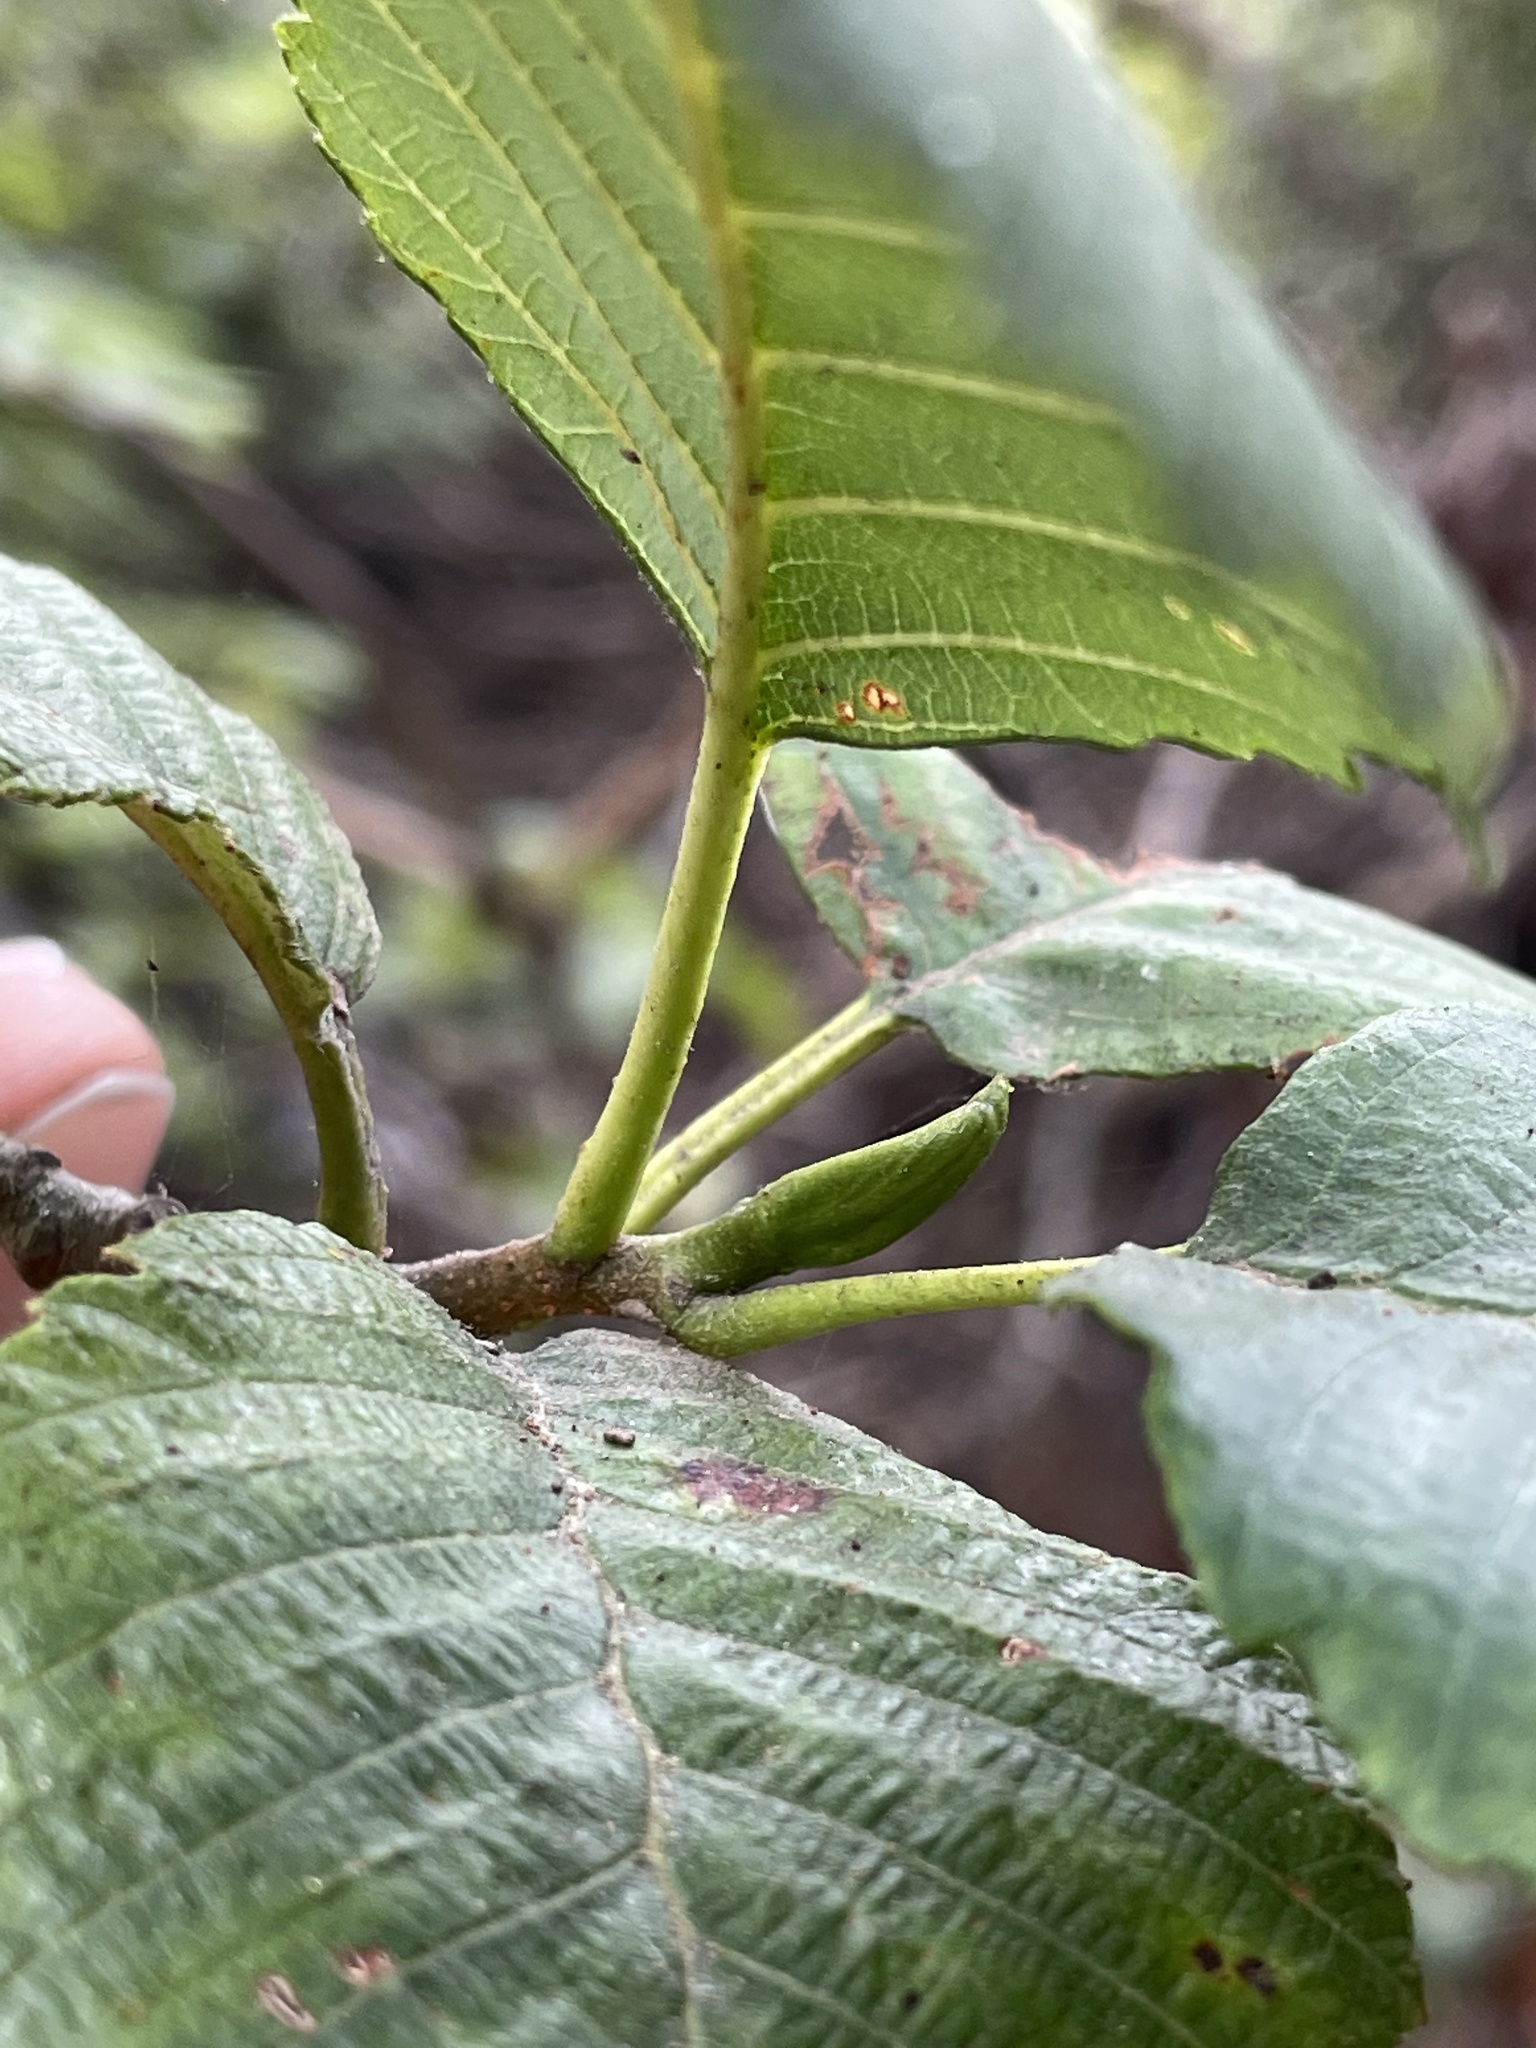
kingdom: Plantae
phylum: Tracheophyta
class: Magnoliopsida
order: Fagales
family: Betulaceae
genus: Alnus
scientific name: Alnus rubra
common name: Red alder
